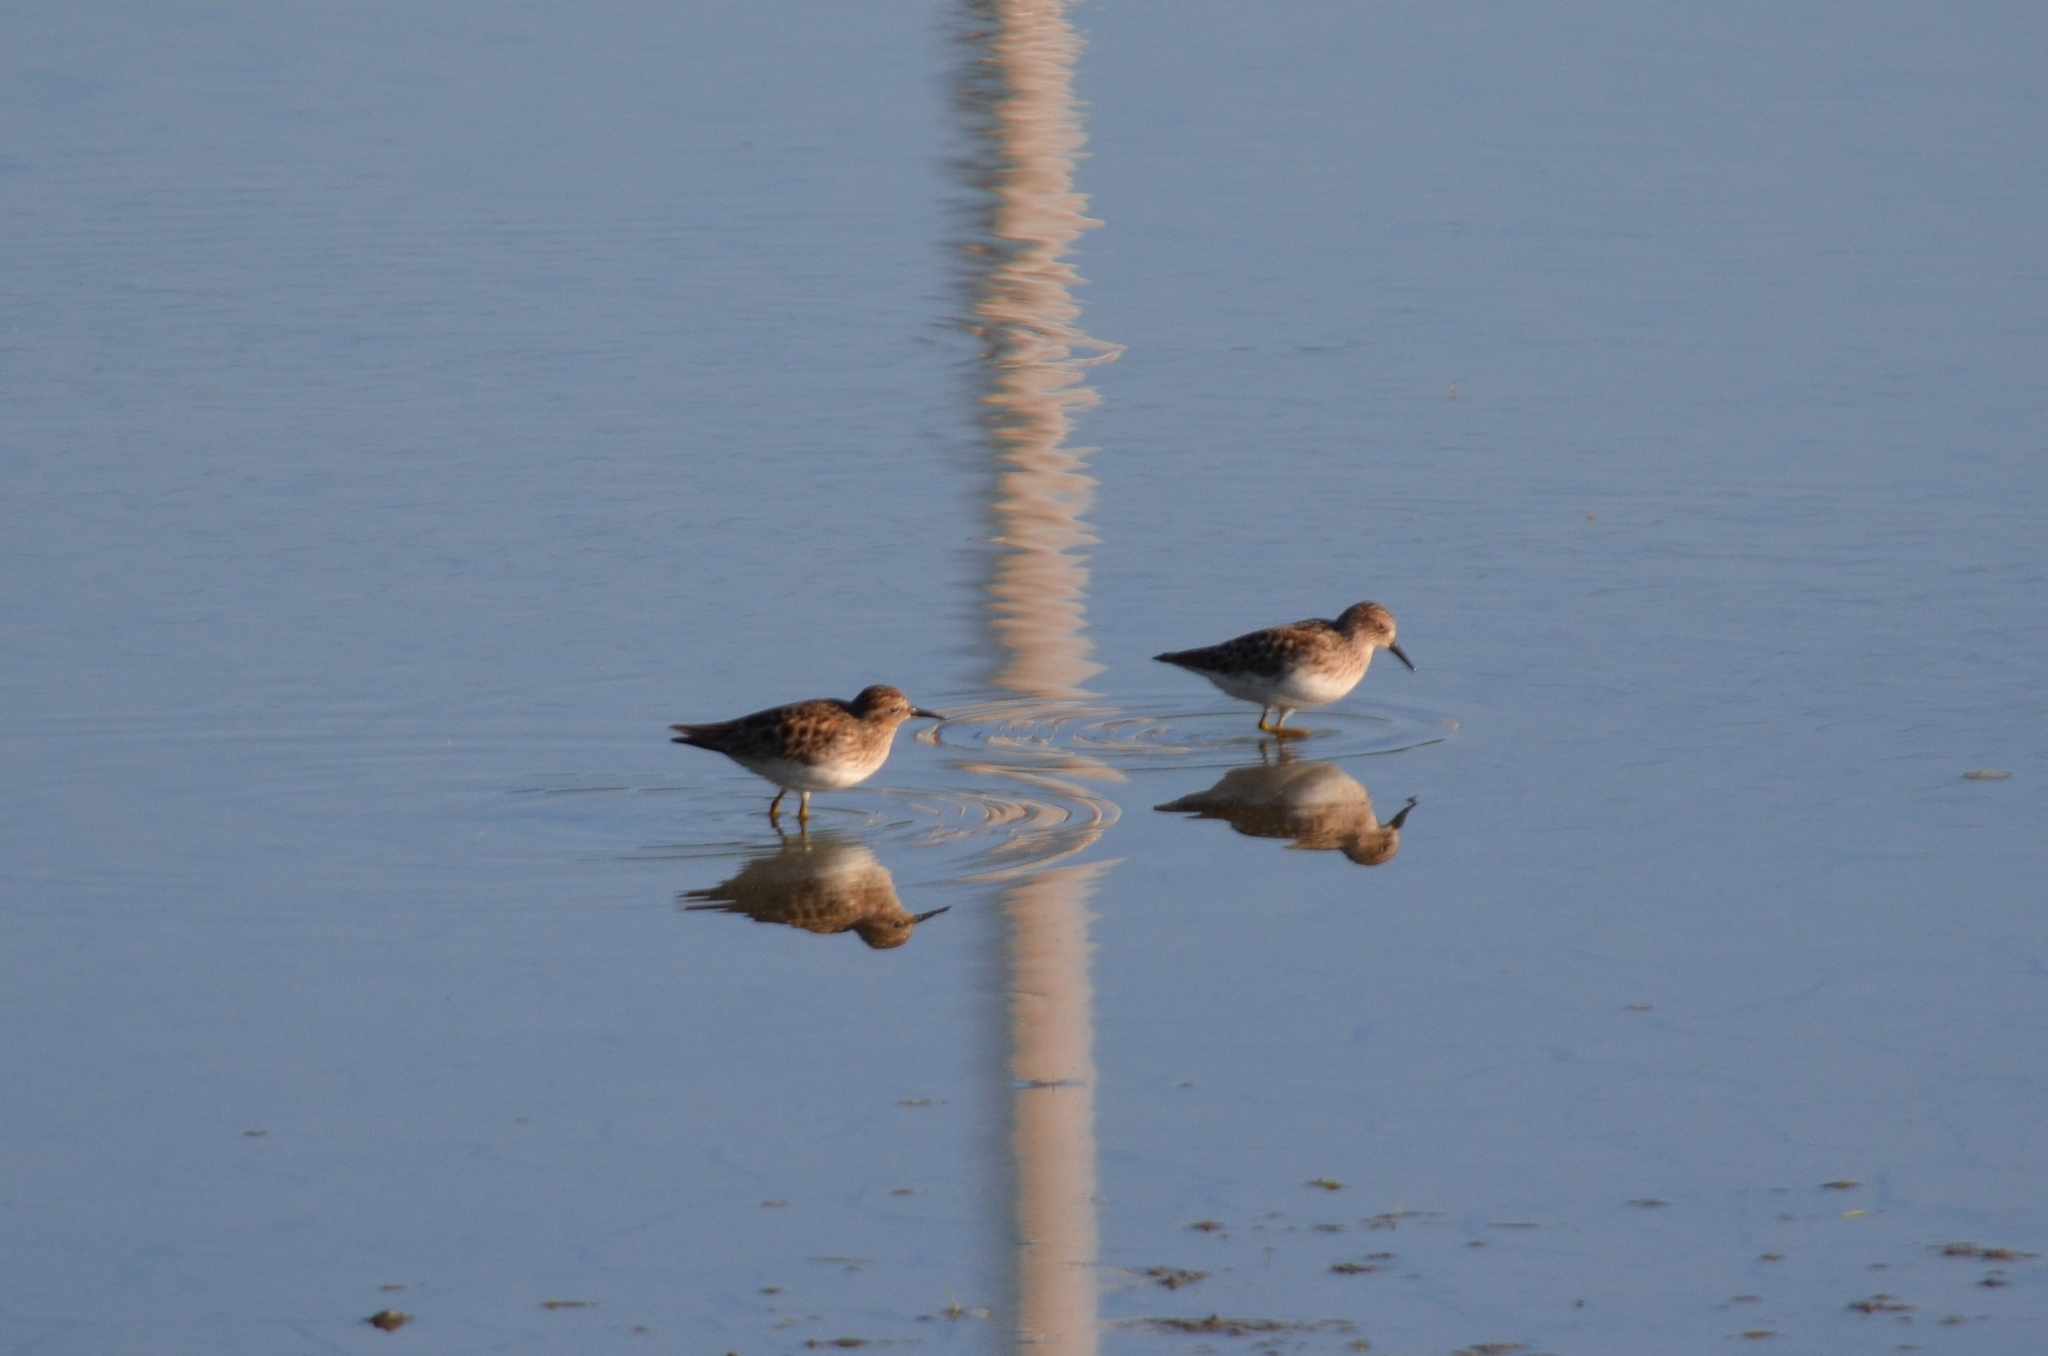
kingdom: Animalia
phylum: Chordata
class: Aves
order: Charadriiformes
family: Scolopacidae
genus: Calidris
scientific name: Calidris minutilla
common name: Least sandpiper
